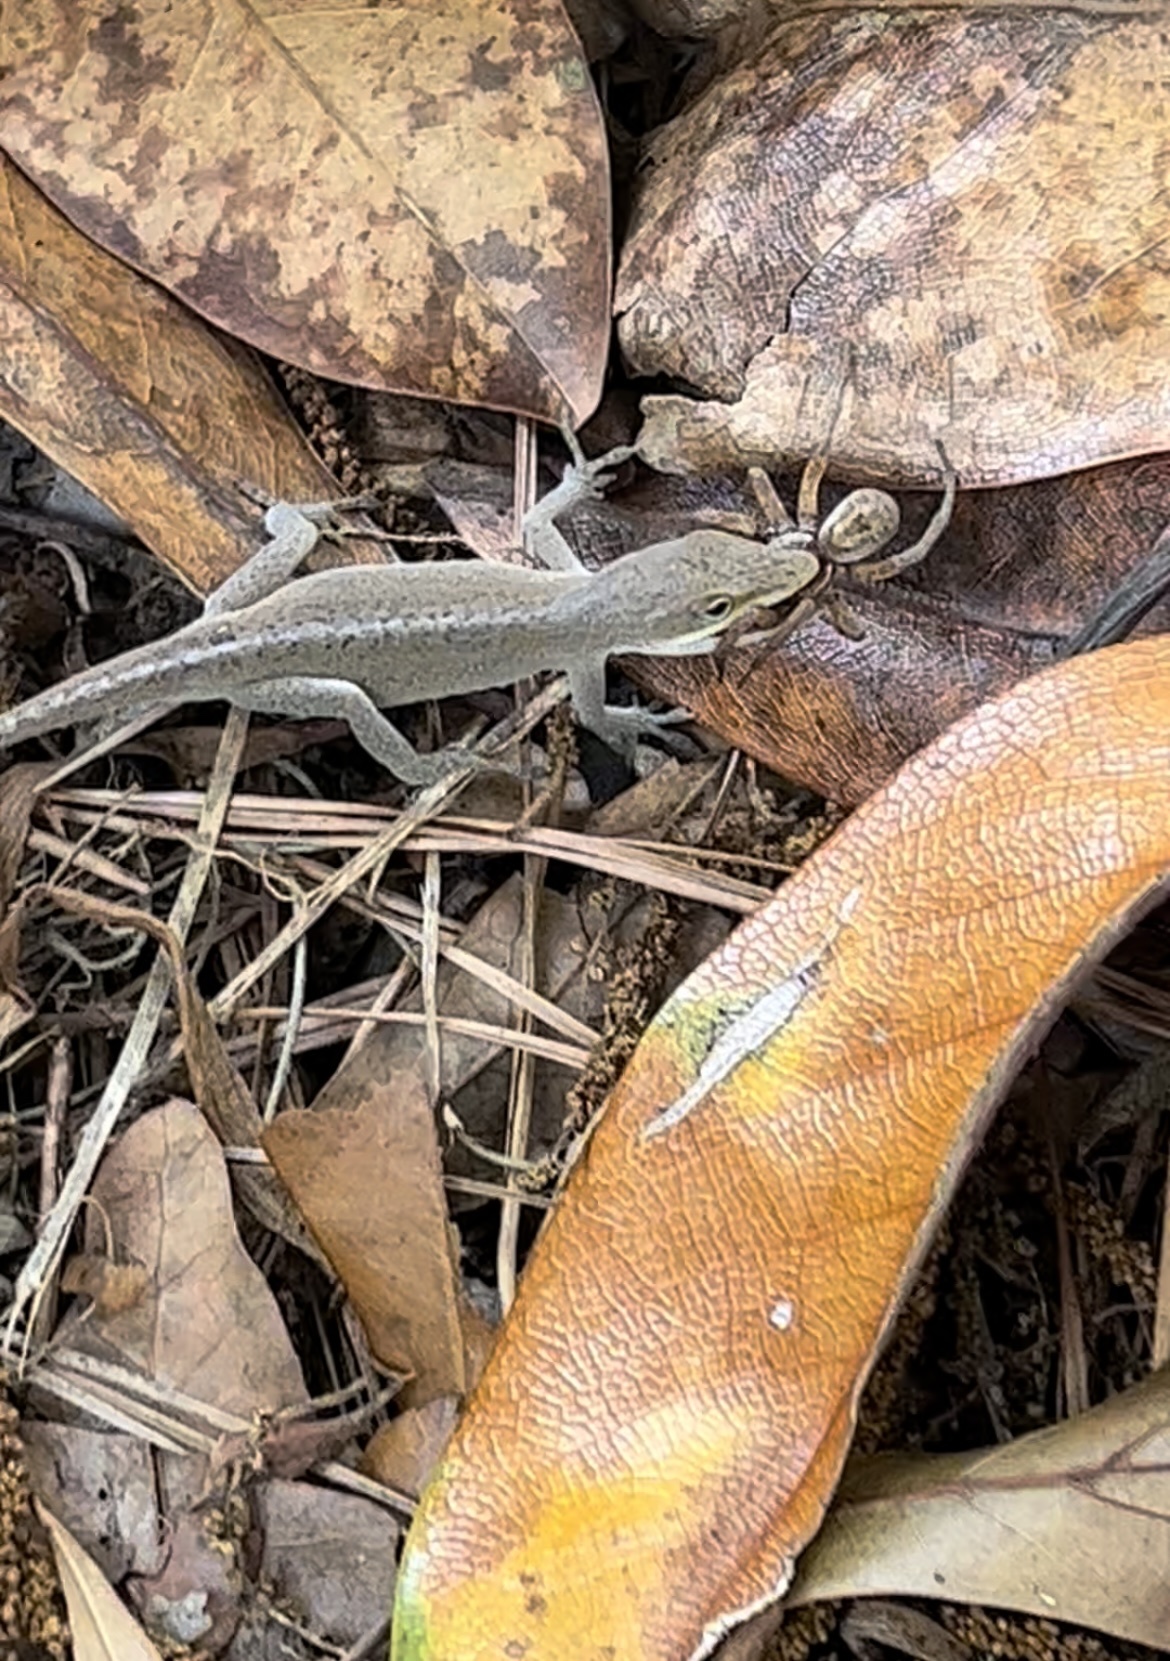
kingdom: Animalia
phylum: Chordata
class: Squamata
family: Dactyloidae
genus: Anolis
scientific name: Anolis carolinensis
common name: Green anole
